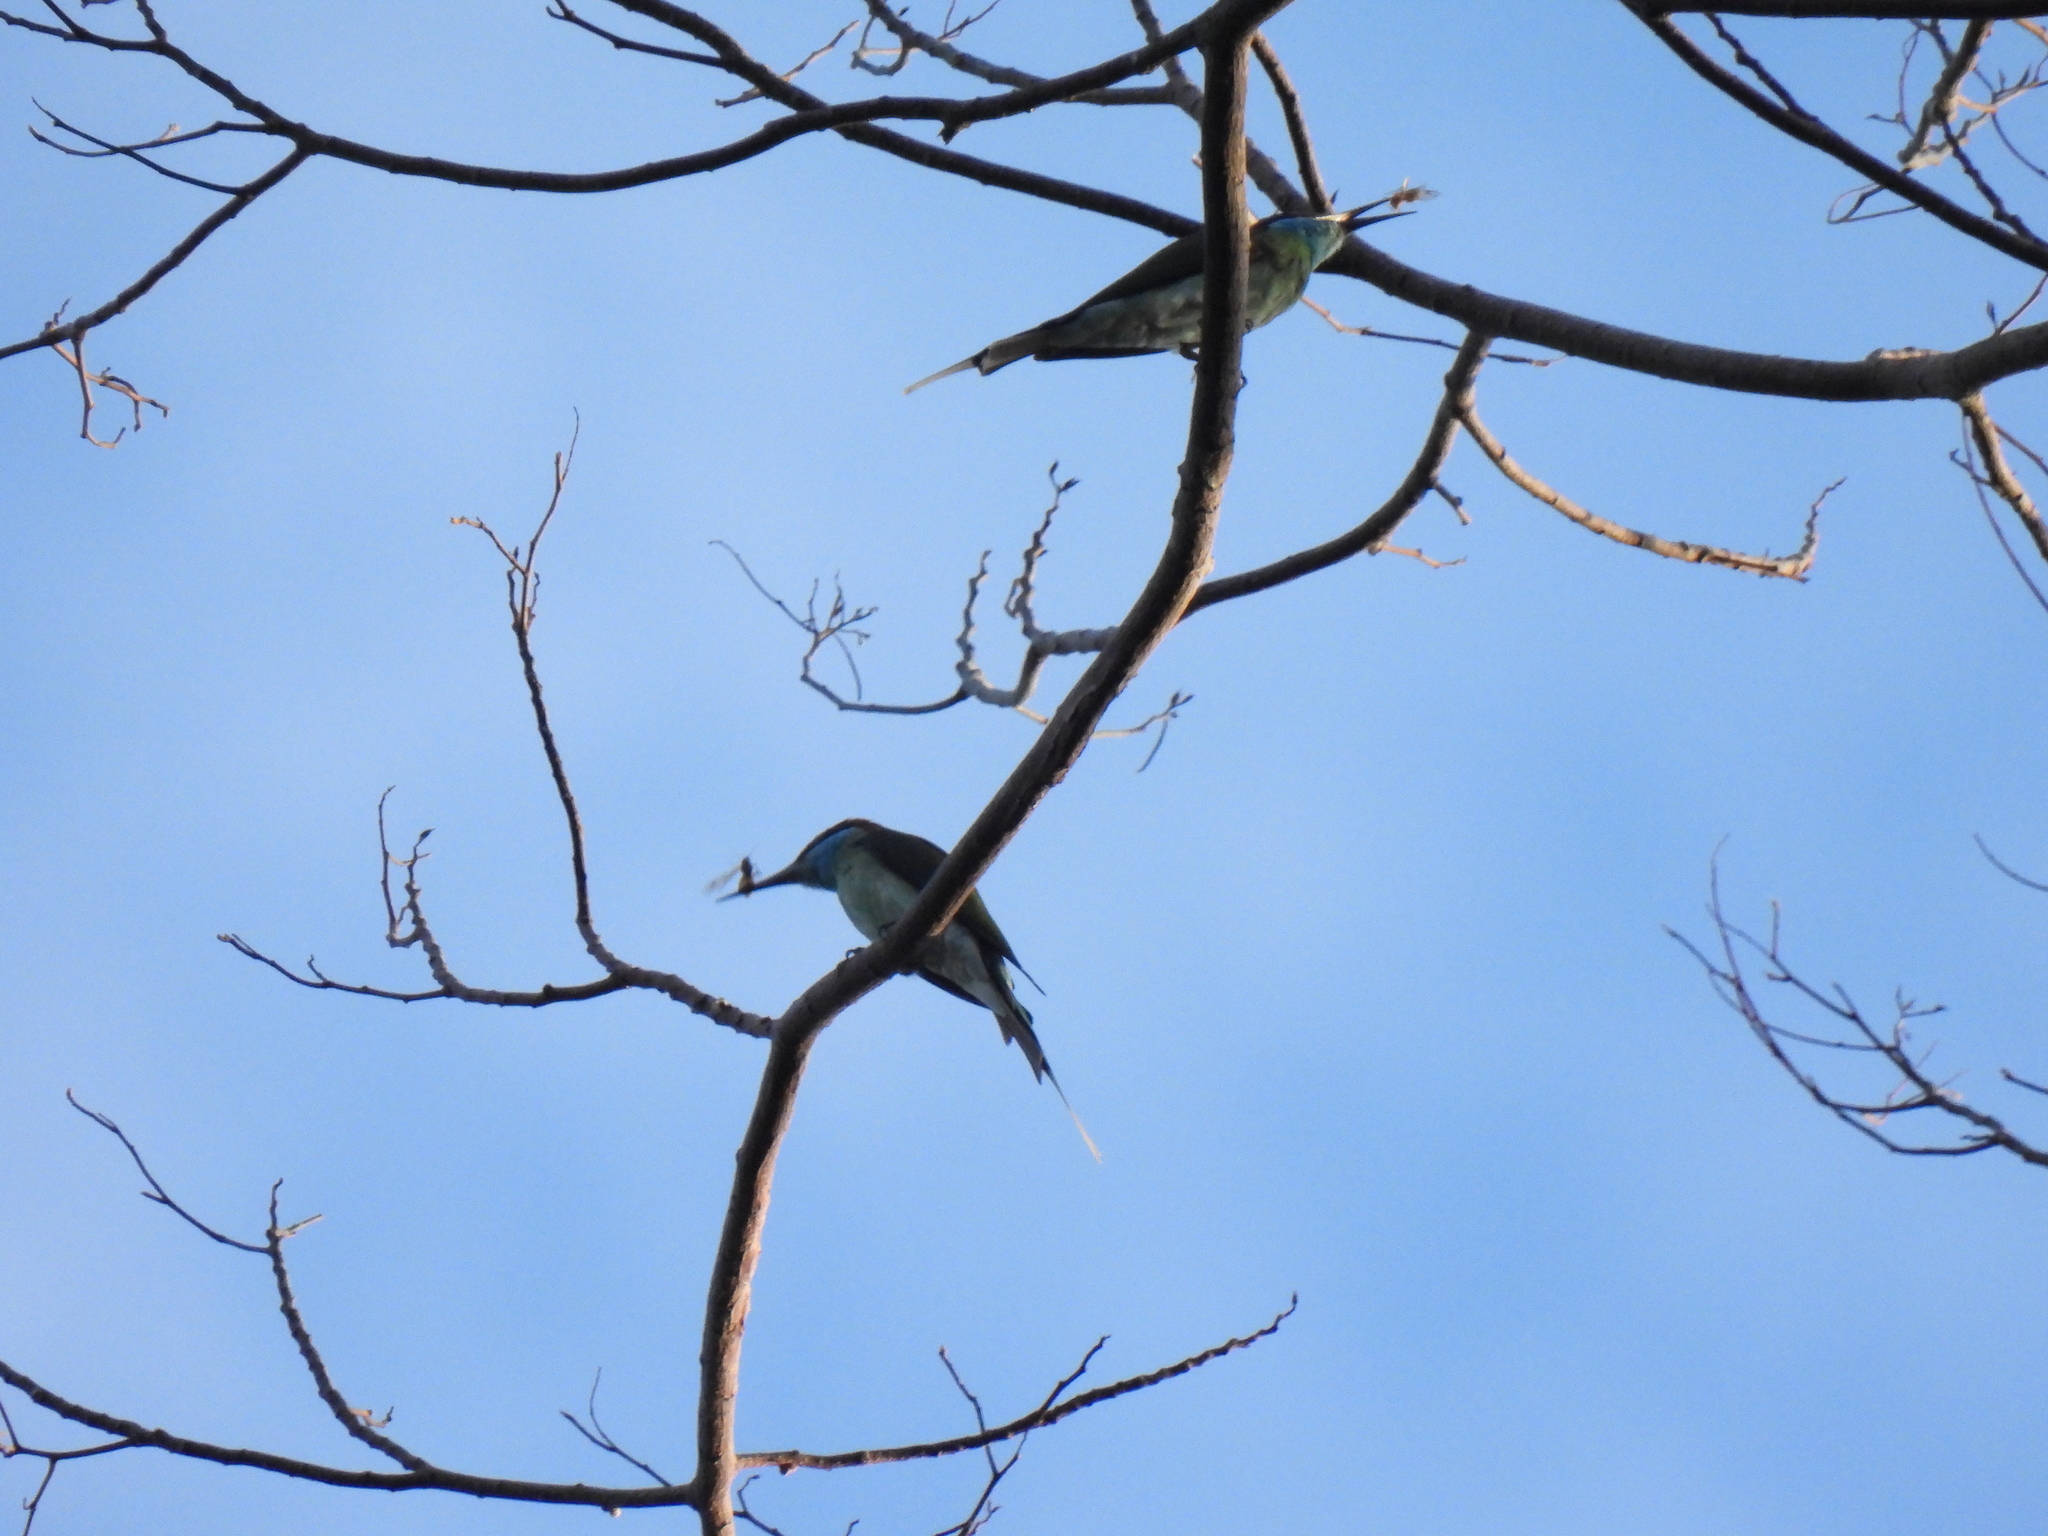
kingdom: Animalia
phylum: Chordata
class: Aves
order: Coraciiformes
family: Meropidae
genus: Merops
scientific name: Merops viridis
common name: Blue-throated bee-eater
